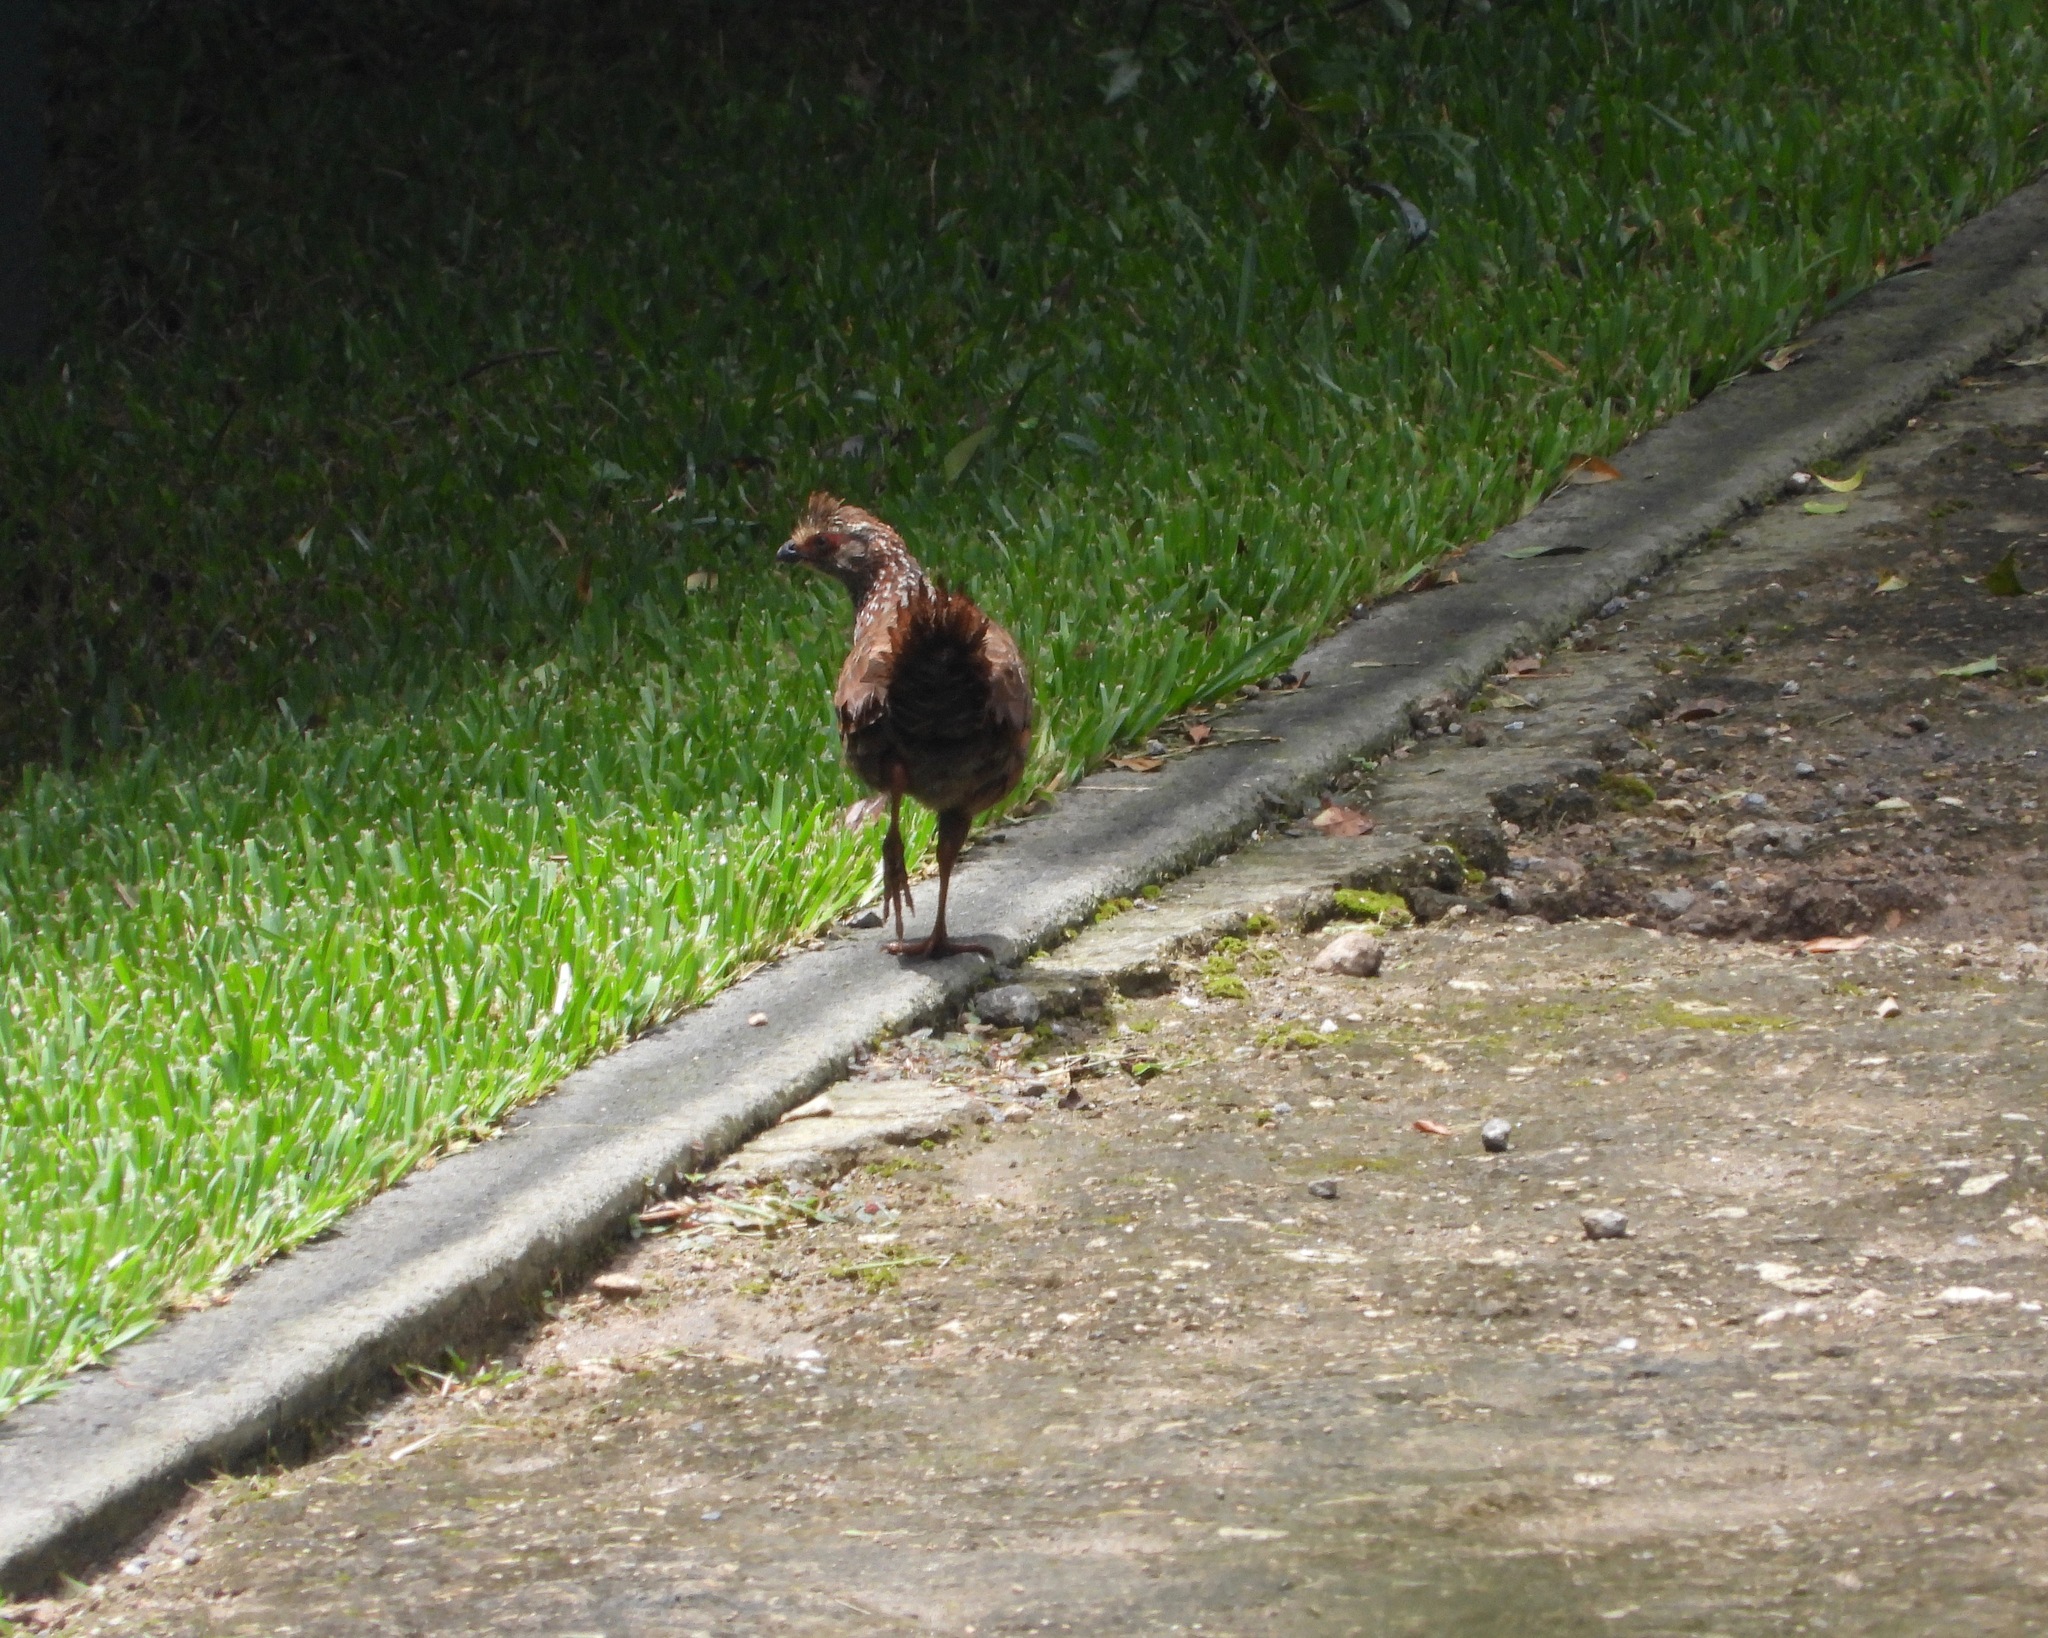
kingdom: Animalia
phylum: Chordata
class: Aves
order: Galliformes
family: Odontophoridae
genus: Dendrortyx
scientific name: Dendrortyx leucophrys
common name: Buffy-crowned wood-partridge
